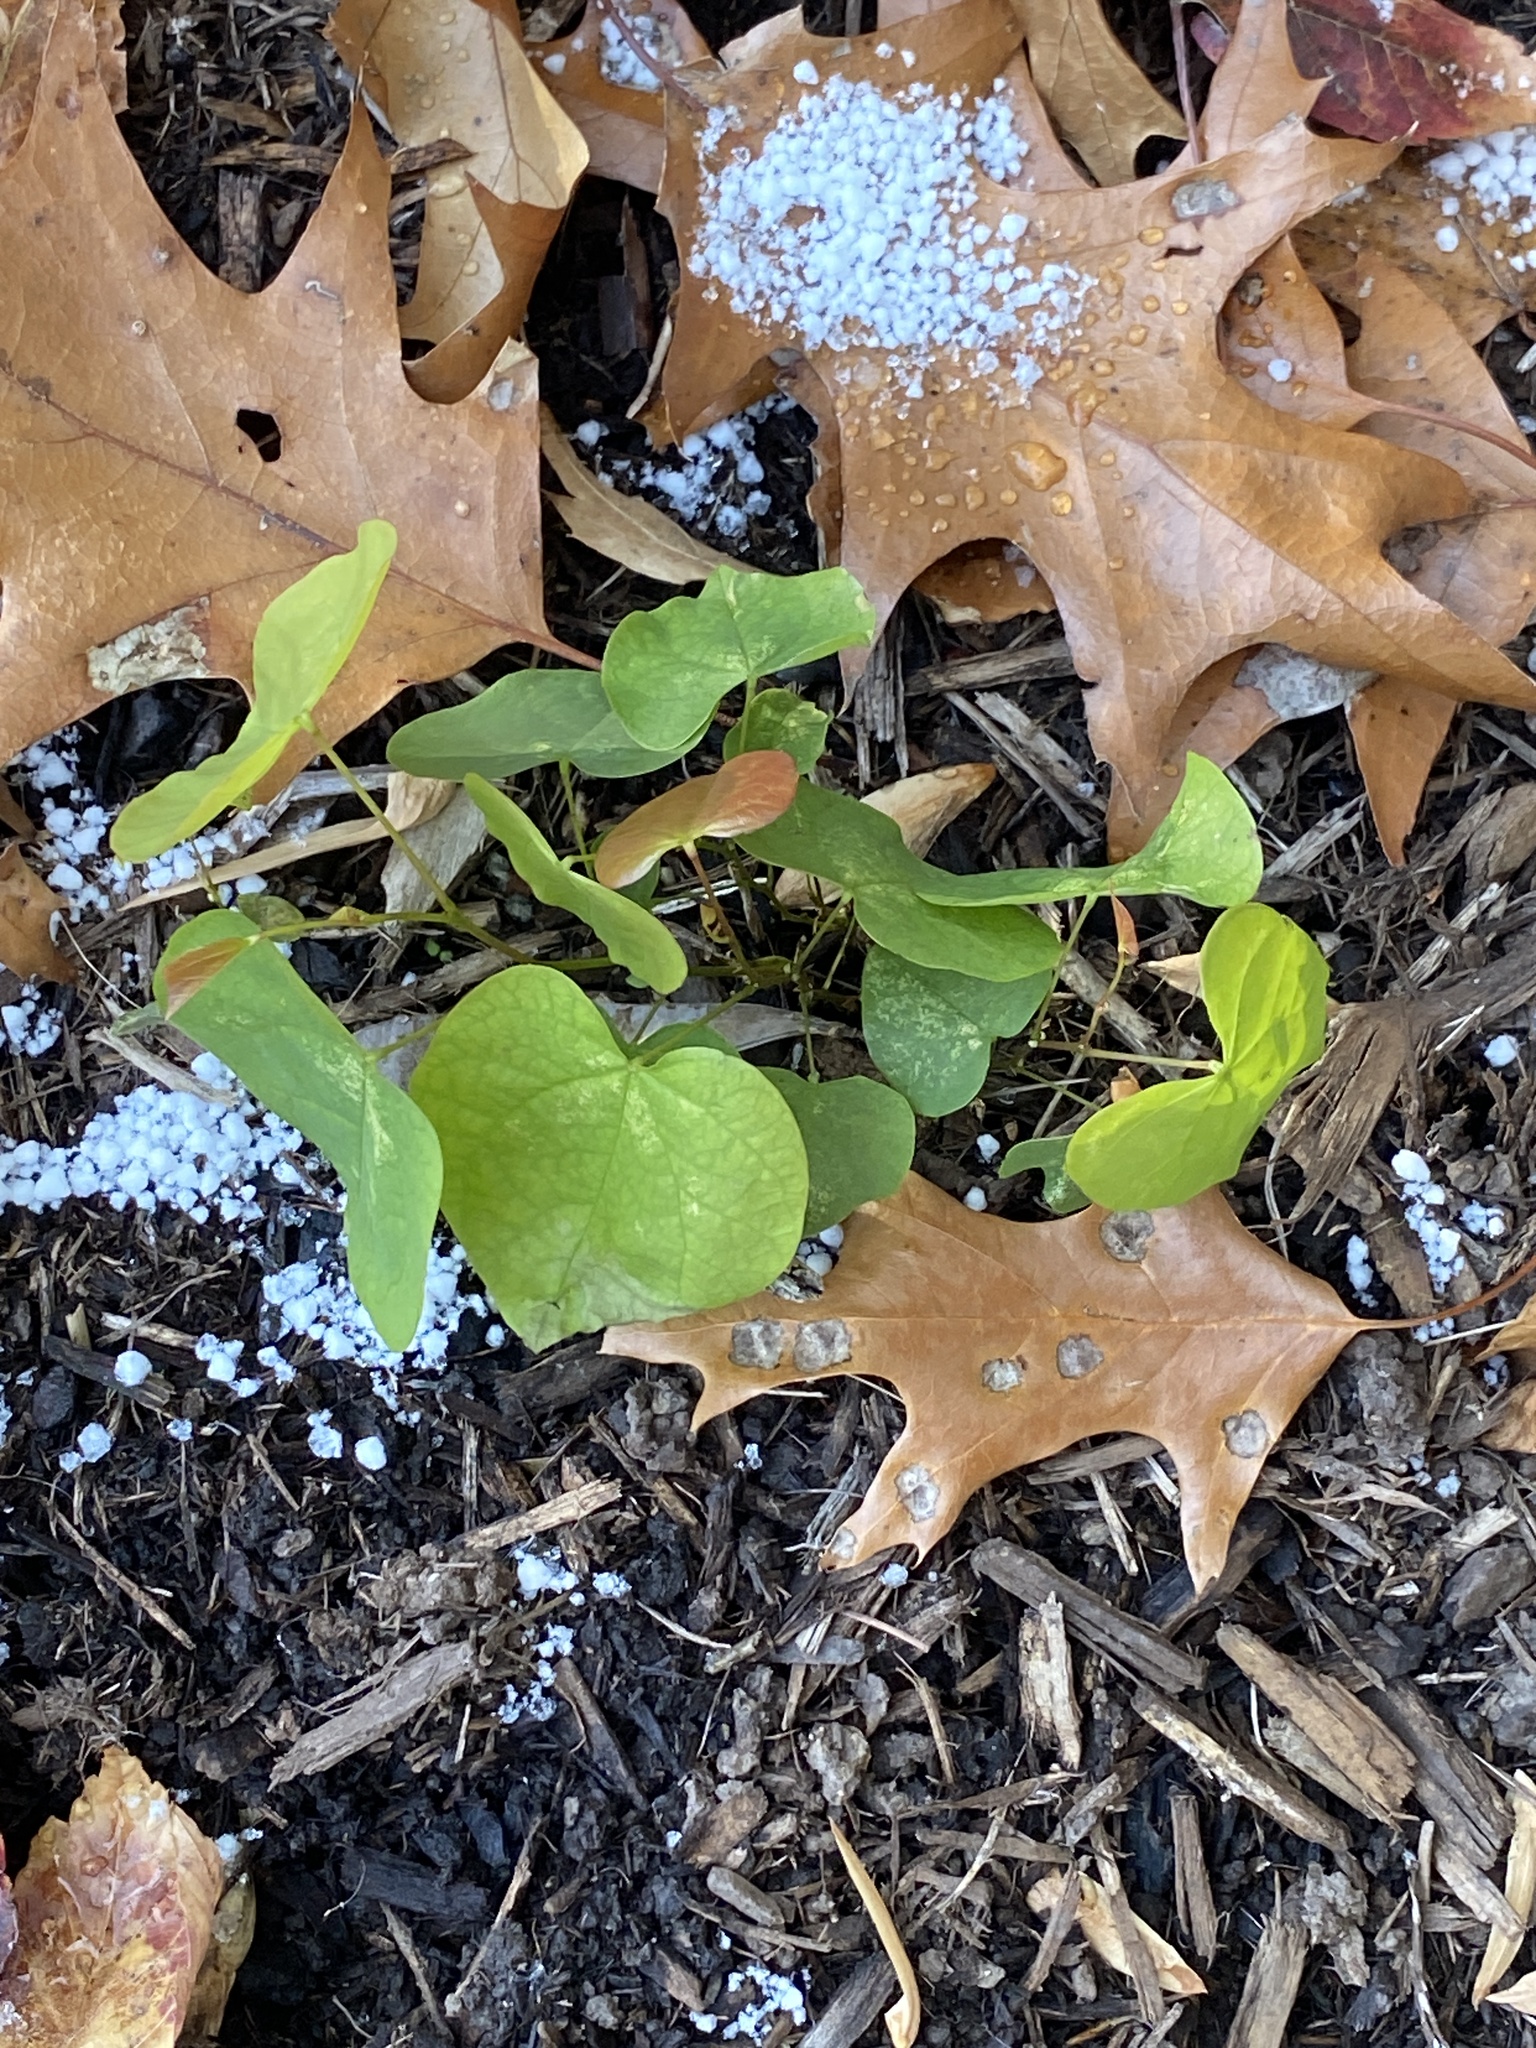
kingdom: Plantae
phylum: Tracheophyta
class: Magnoliopsida
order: Fabales
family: Fabaceae
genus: Cercis
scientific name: Cercis canadensis
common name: Eastern redbud
